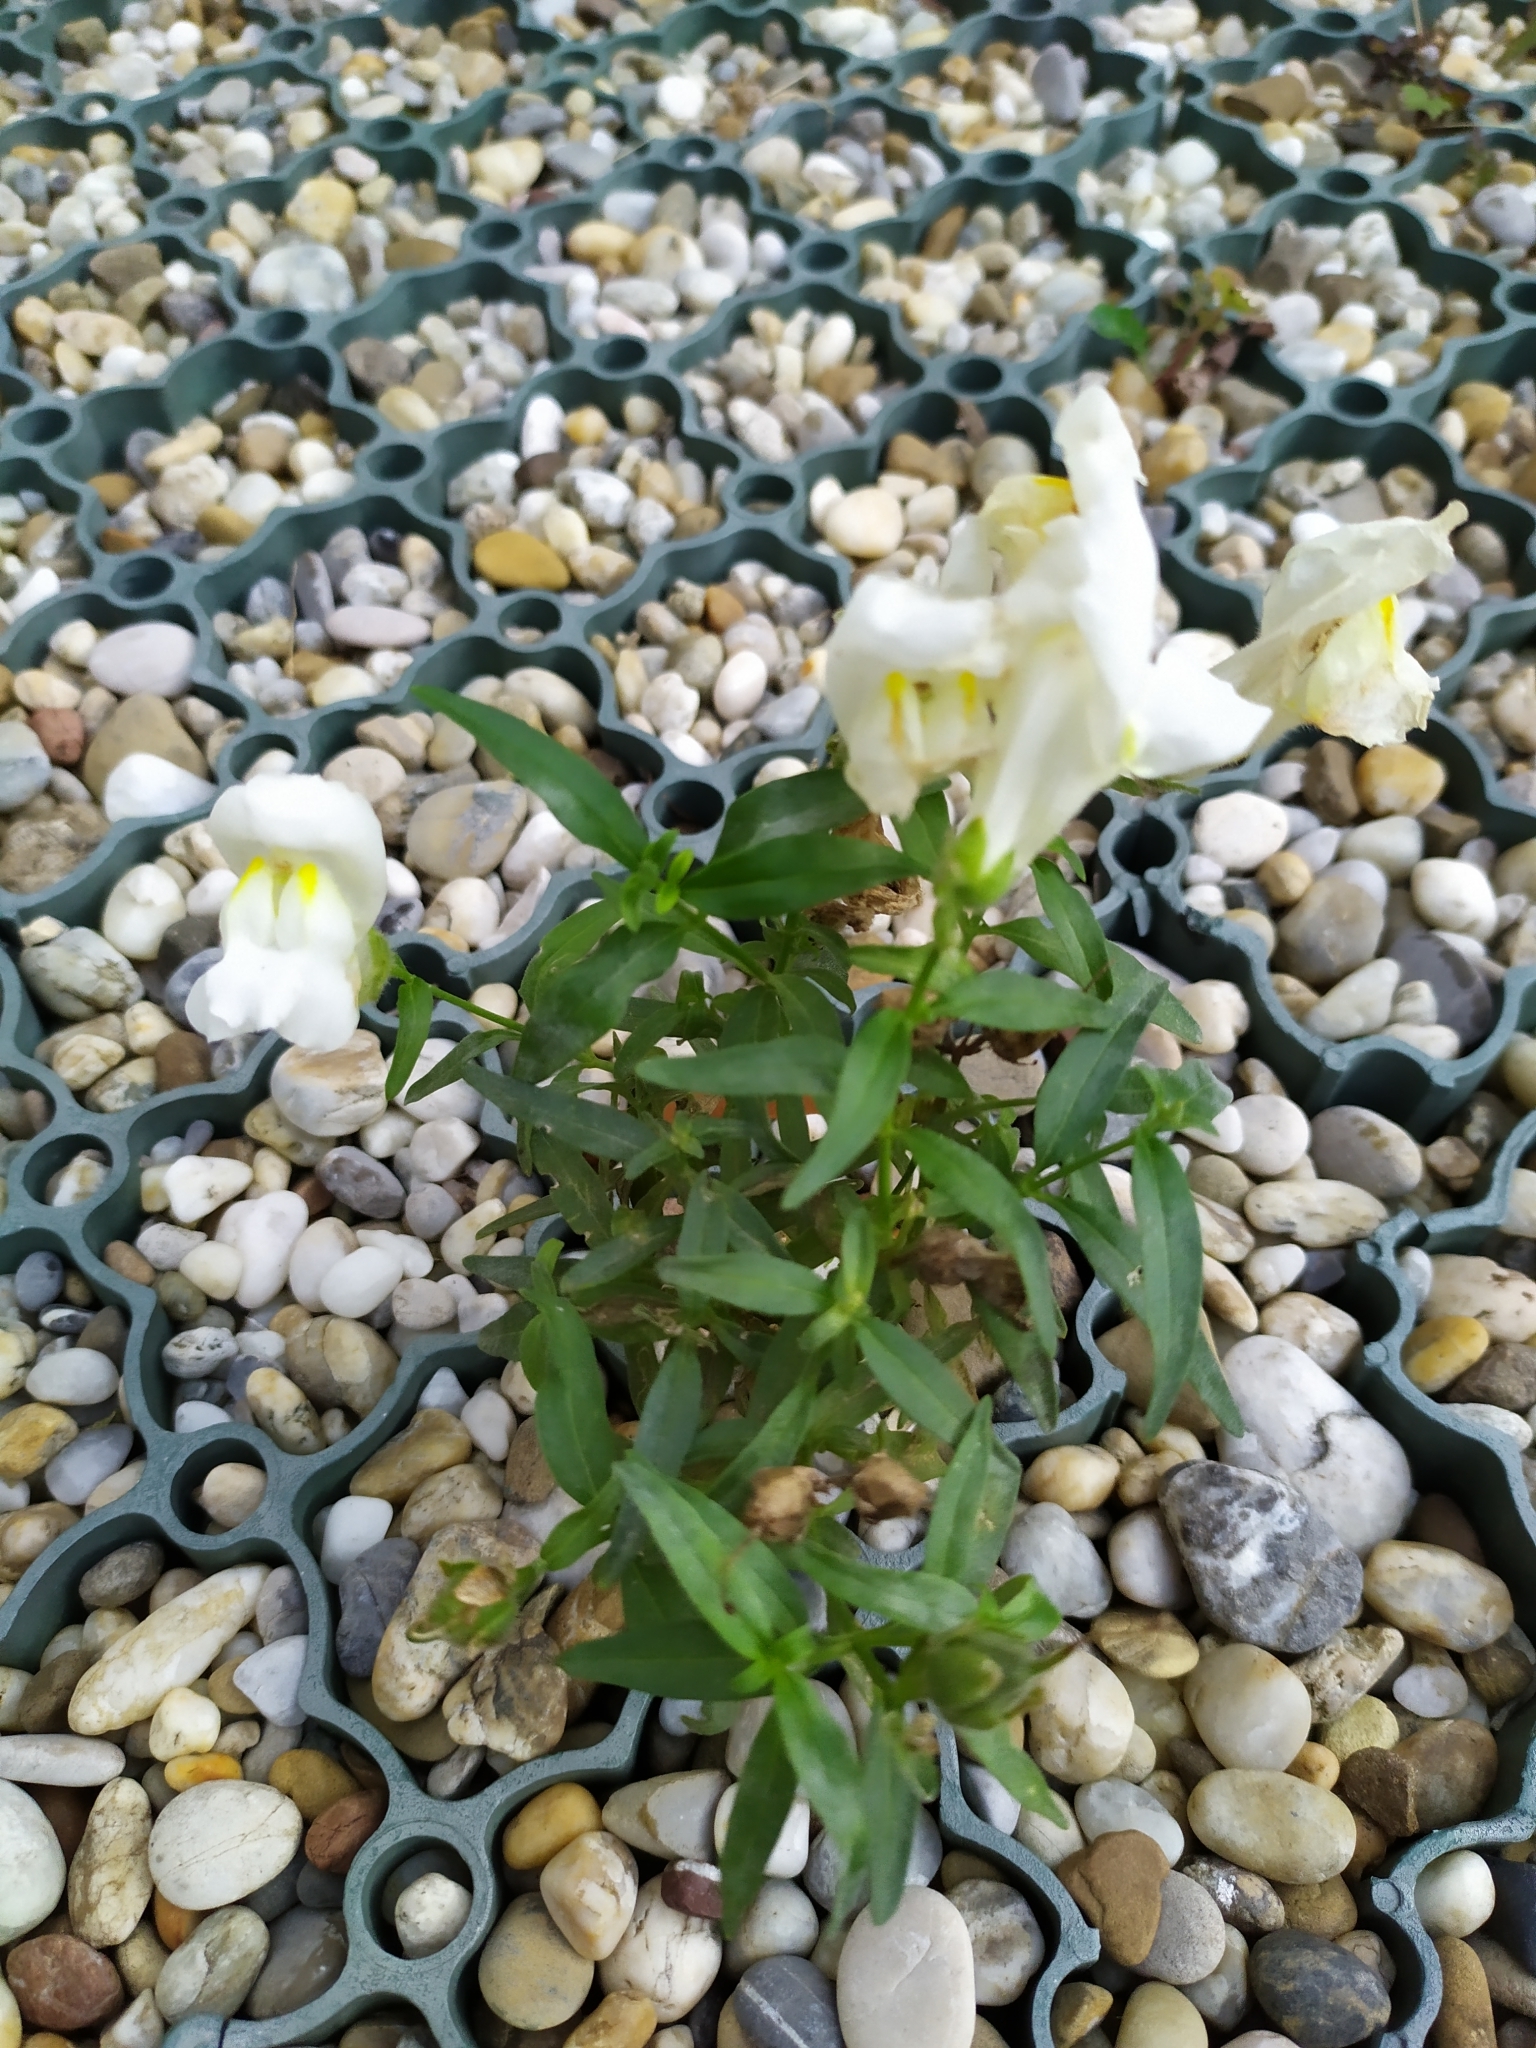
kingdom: Plantae
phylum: Tracheophyta
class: Magnoliopsida
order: Lamiales
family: Plantaginaceae
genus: Antirrhinum
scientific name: Antirrhinum majus
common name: Snapdragon
